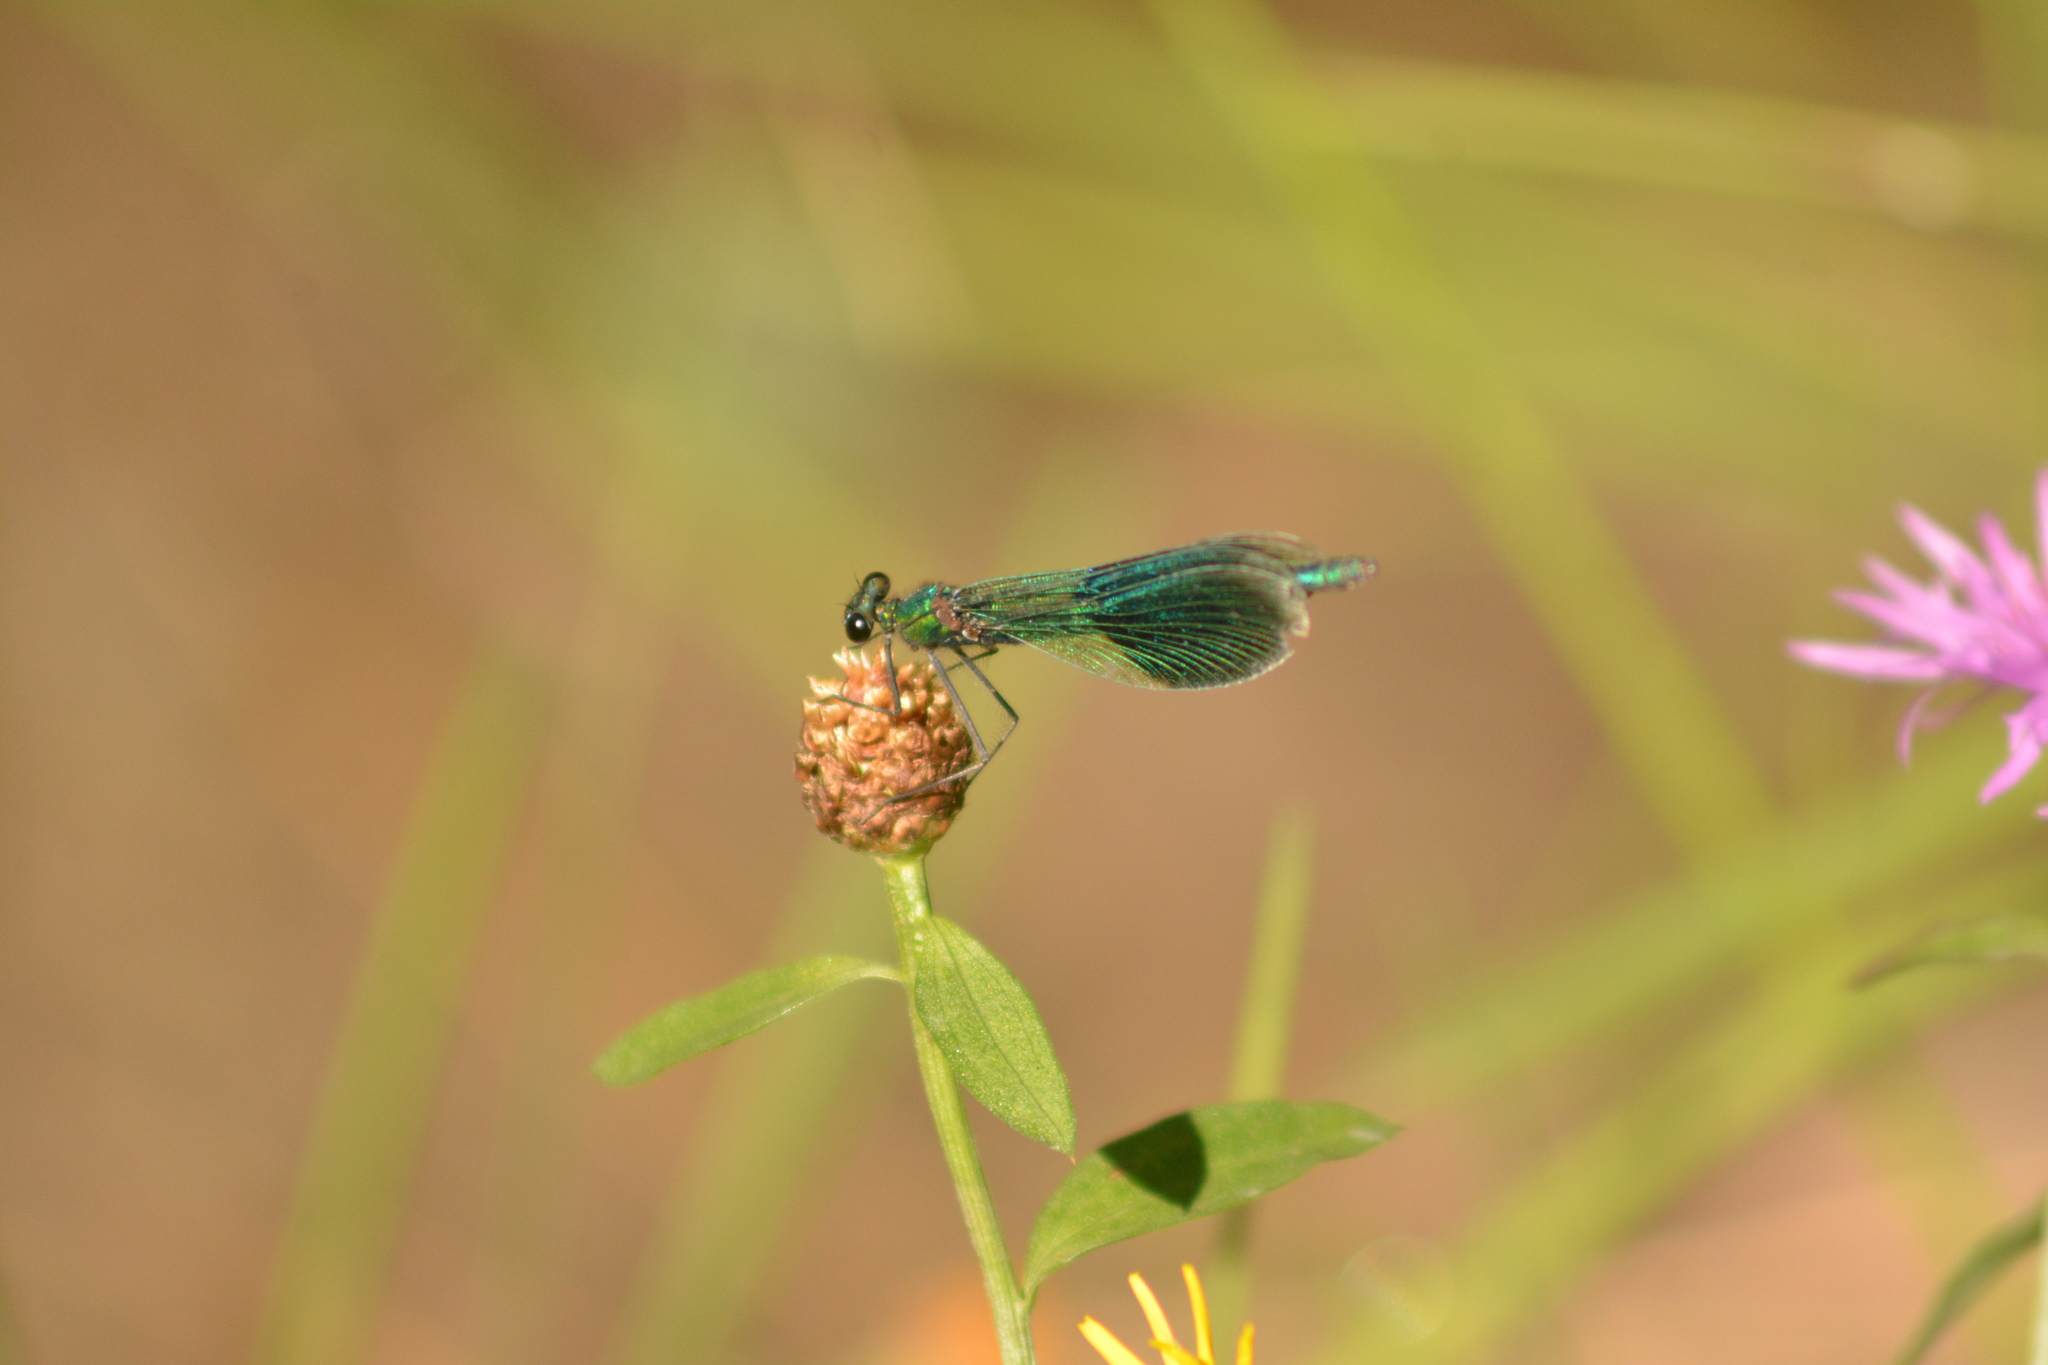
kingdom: Animalia
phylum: Arthropoda
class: Insecta
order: Odonata
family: Calopterygidae
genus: Calopteryx
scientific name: Calopteryx splendens
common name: Banded demoiselle
